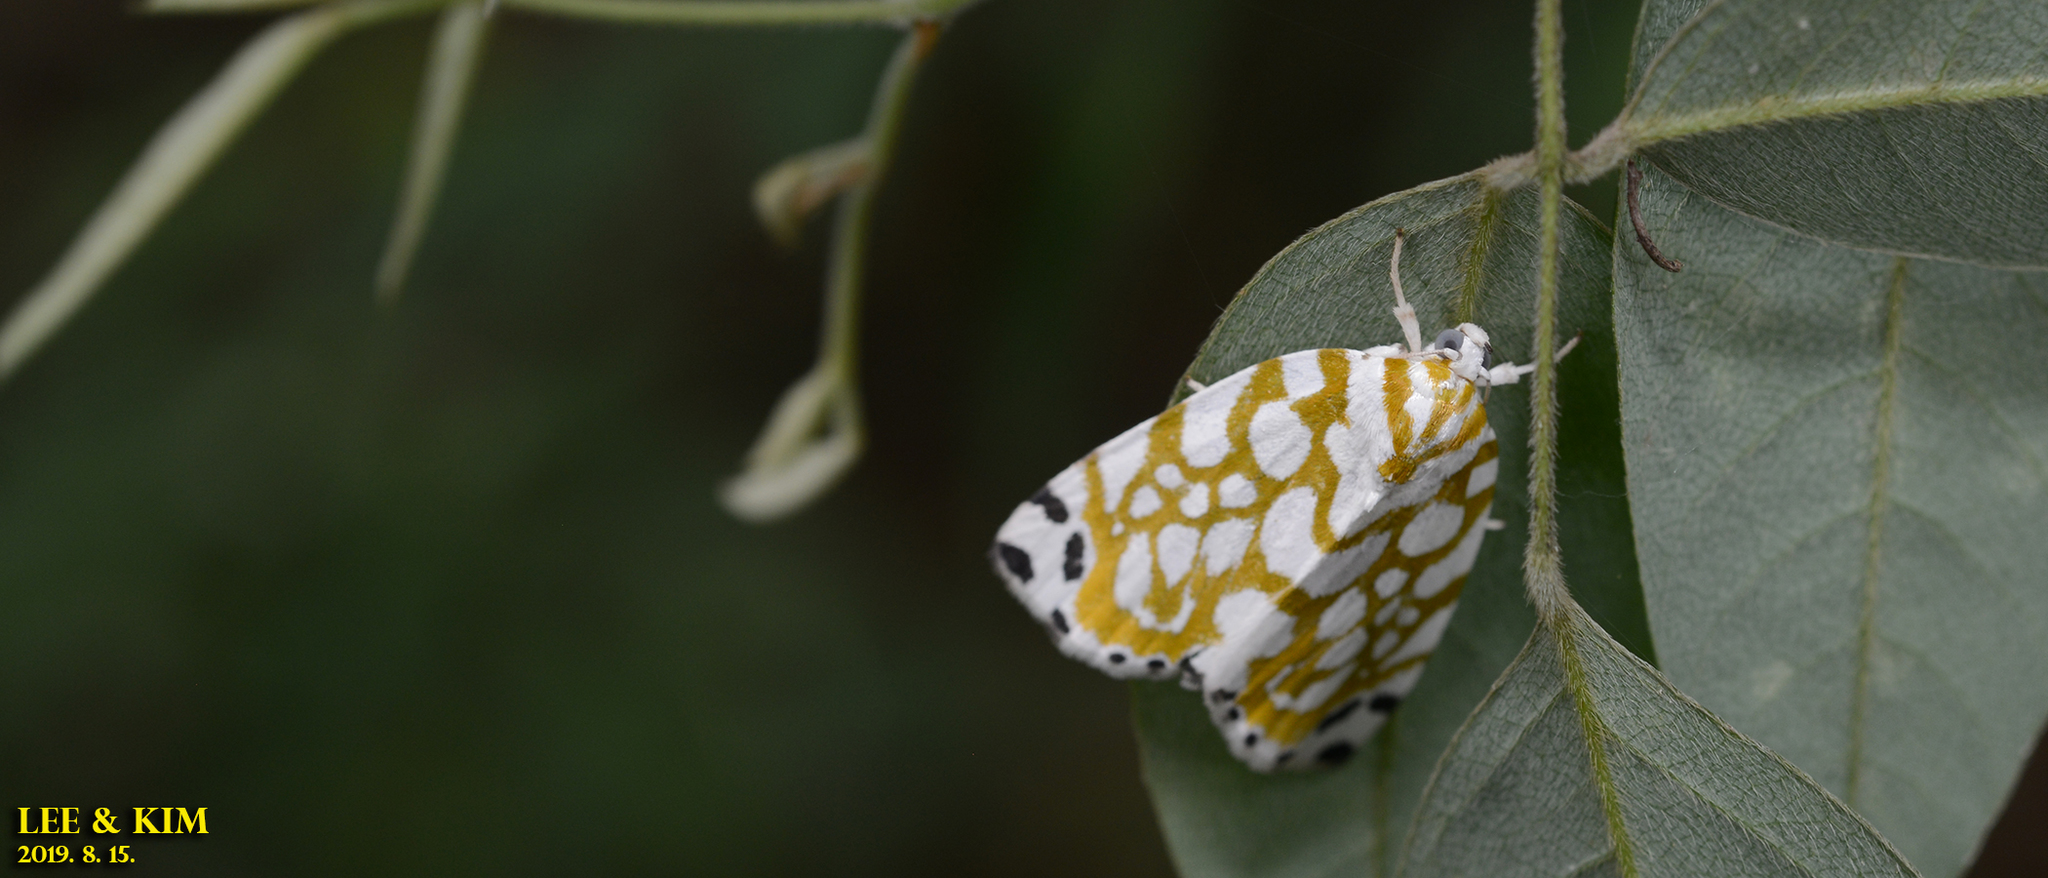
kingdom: Animalia
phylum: Arthropoda
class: Insecta
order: Lepidoptera
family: Nolidae
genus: Sinna
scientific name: Sinna extrema
